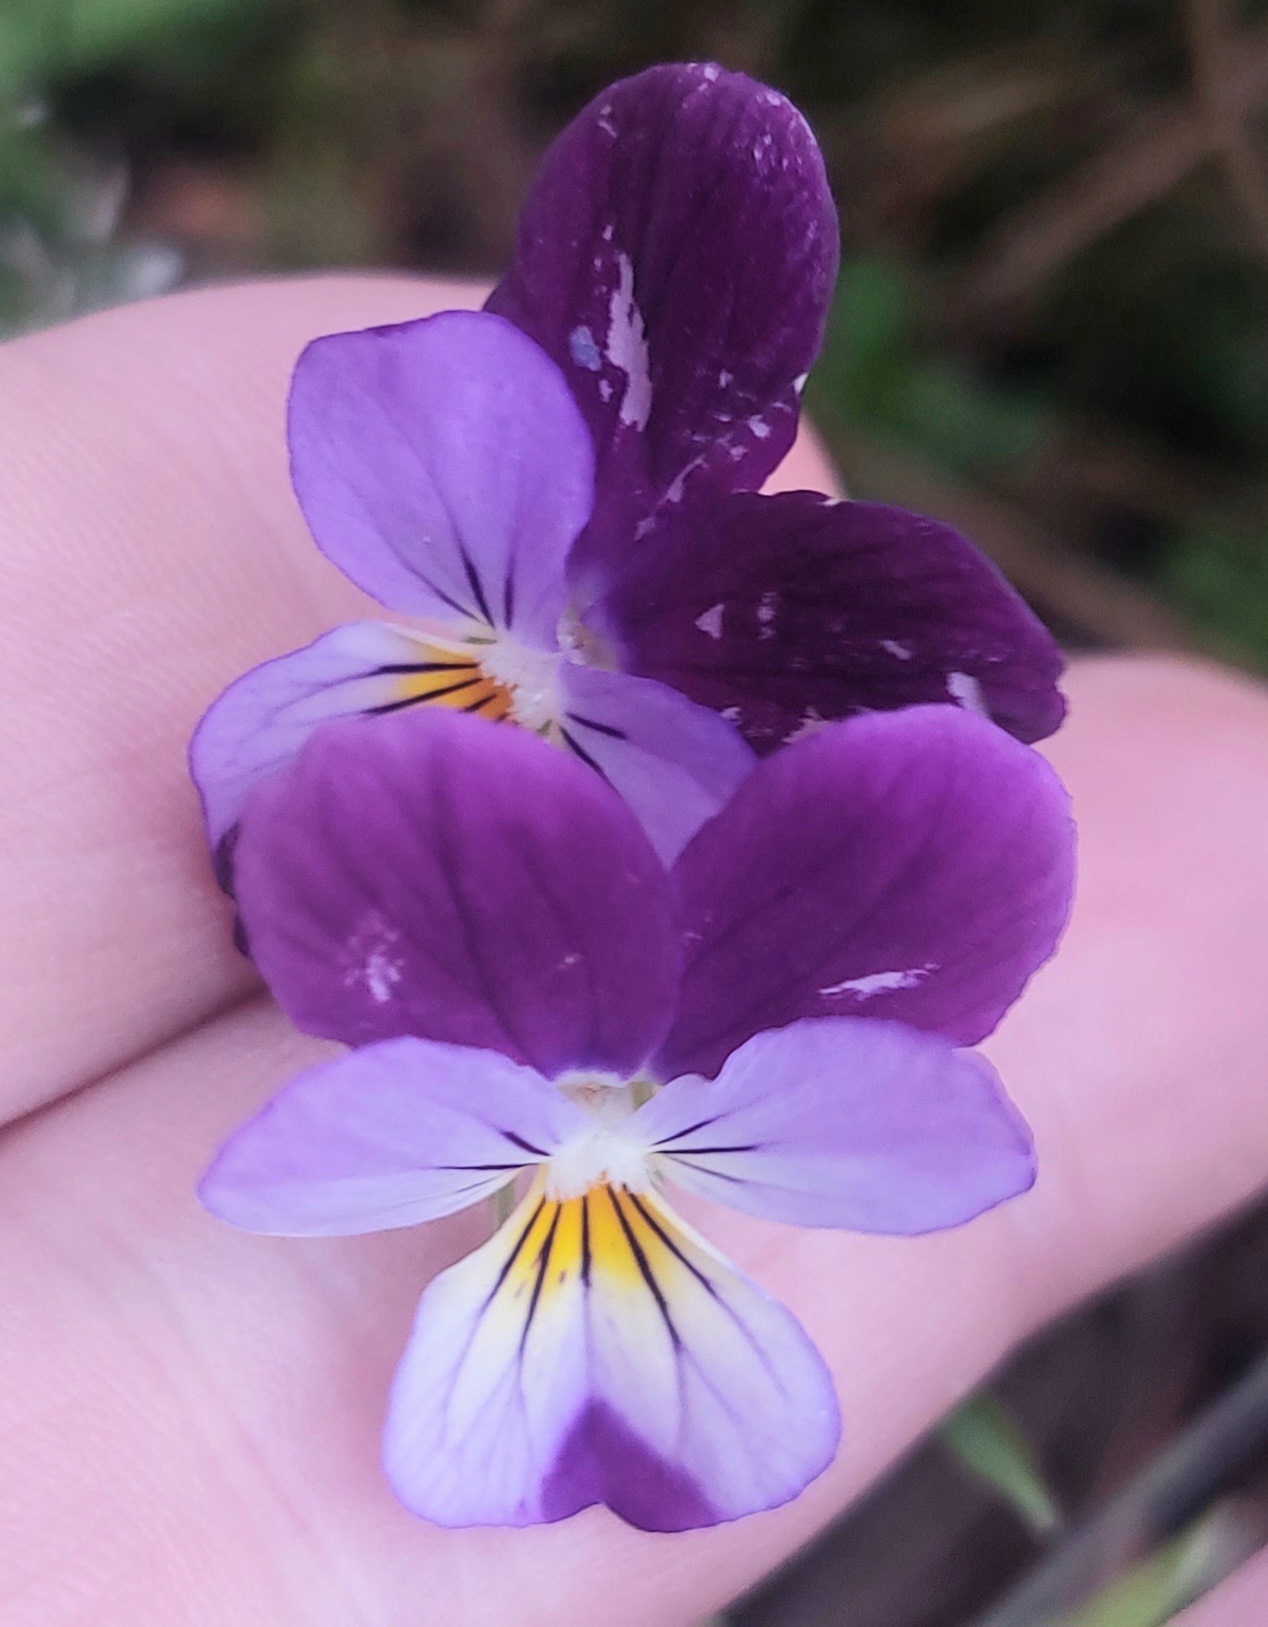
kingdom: Plantae
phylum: Tracheophyta
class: Magnoliopsida
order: Malpighiales
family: Violaceae
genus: Viola
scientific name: Viola williamsii
